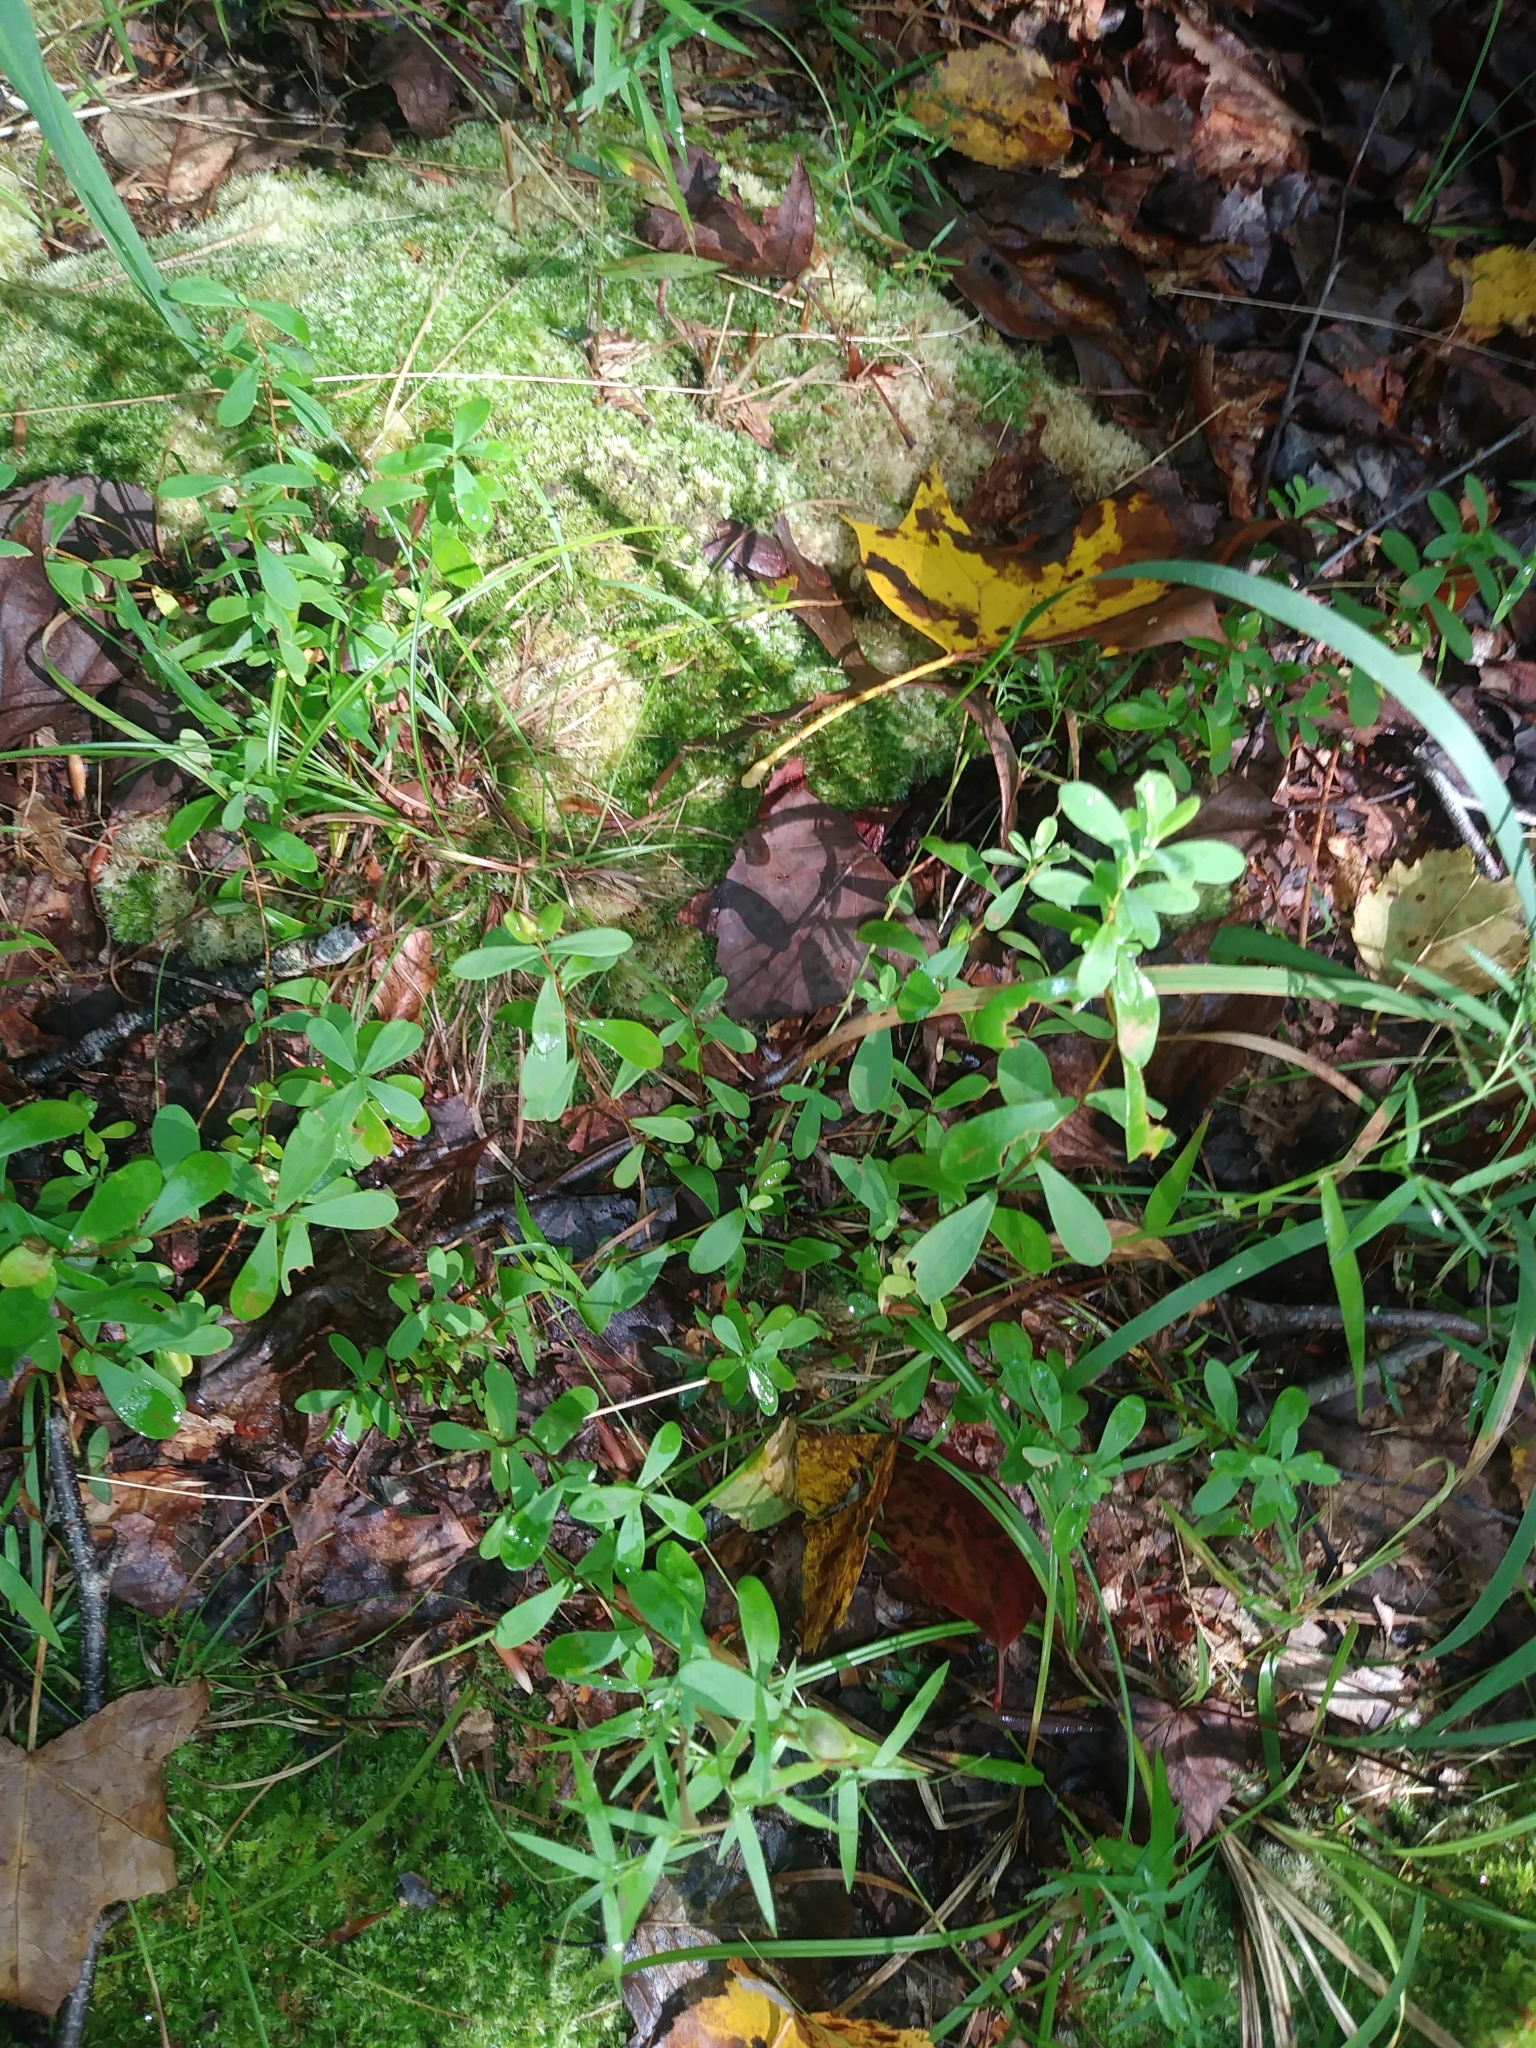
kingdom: Plantae
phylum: Tracheophyta
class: Magnoliopsida
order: Malpighiales
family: Hypericaceae
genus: Hypericum
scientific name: Hypericum hypericoides
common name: St. andrew's cross
